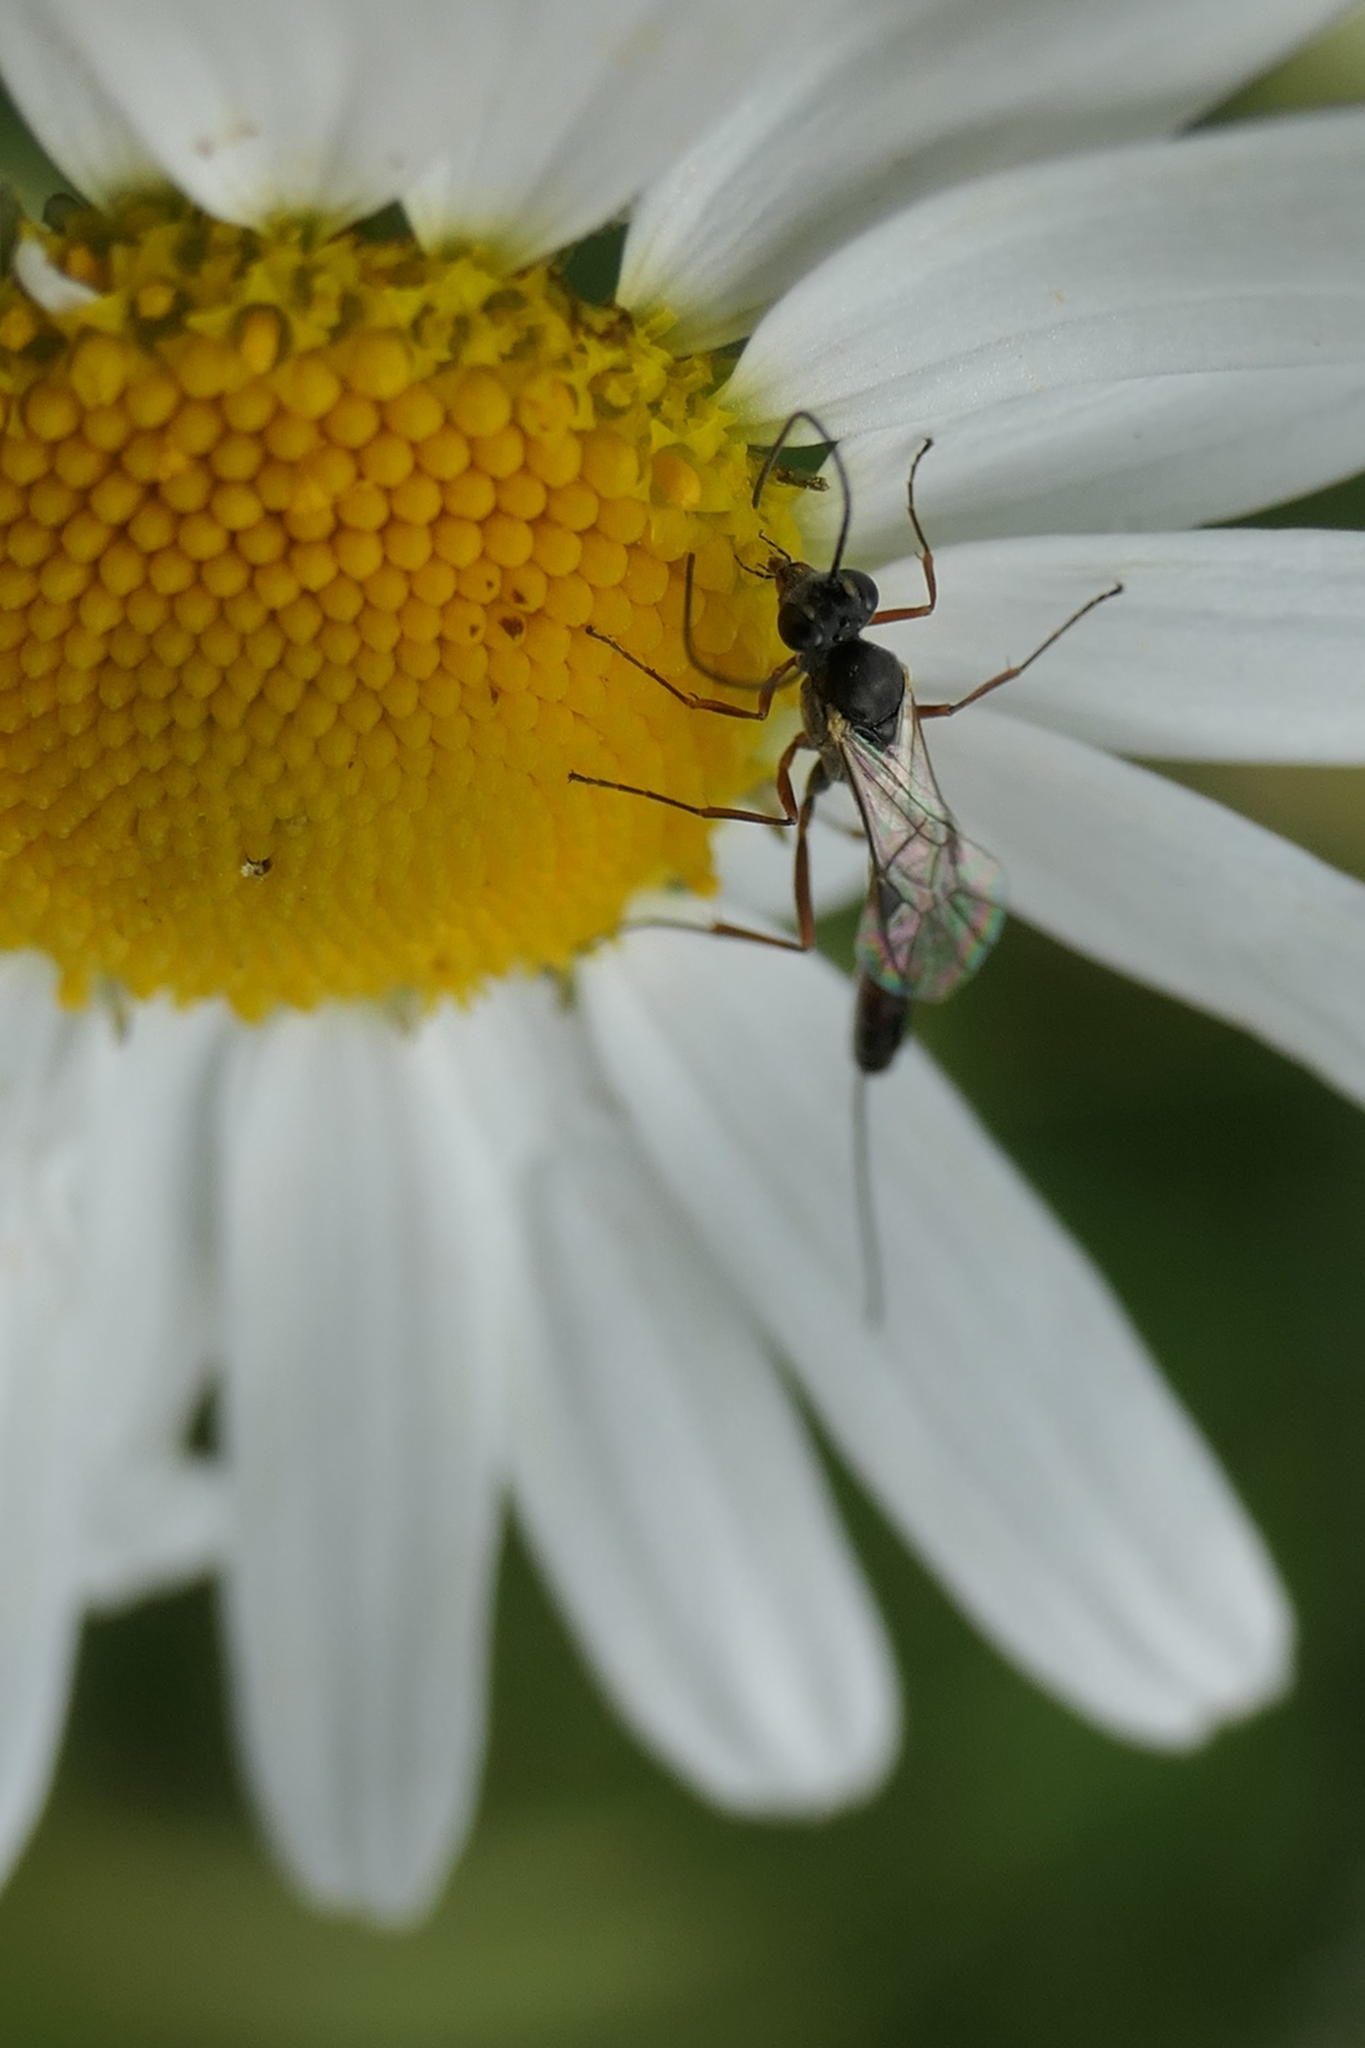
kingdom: Animalia
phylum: Arthropoda
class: Insecta
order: Hymenoptera
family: Ichneumonidae
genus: Trathala
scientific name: Trathala agnina
